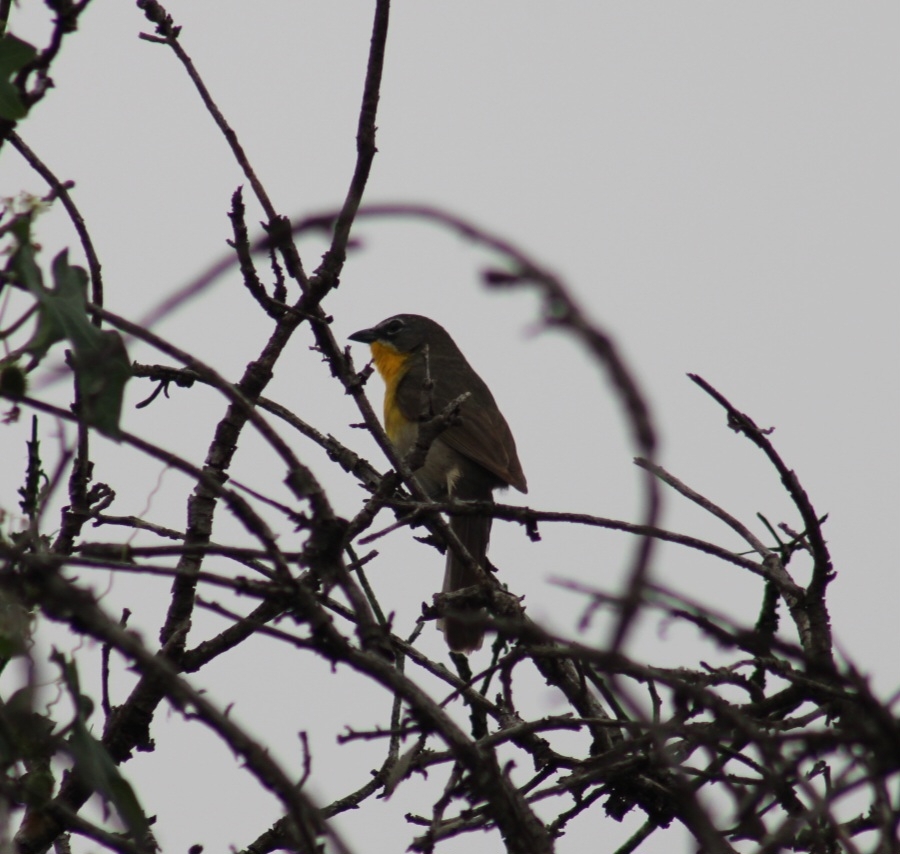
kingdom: Animalia
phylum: Chordata
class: Aves
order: Passeriformes
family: Parulidae
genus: Icteria
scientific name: Icteria virens
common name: Yellow-breasted chat
